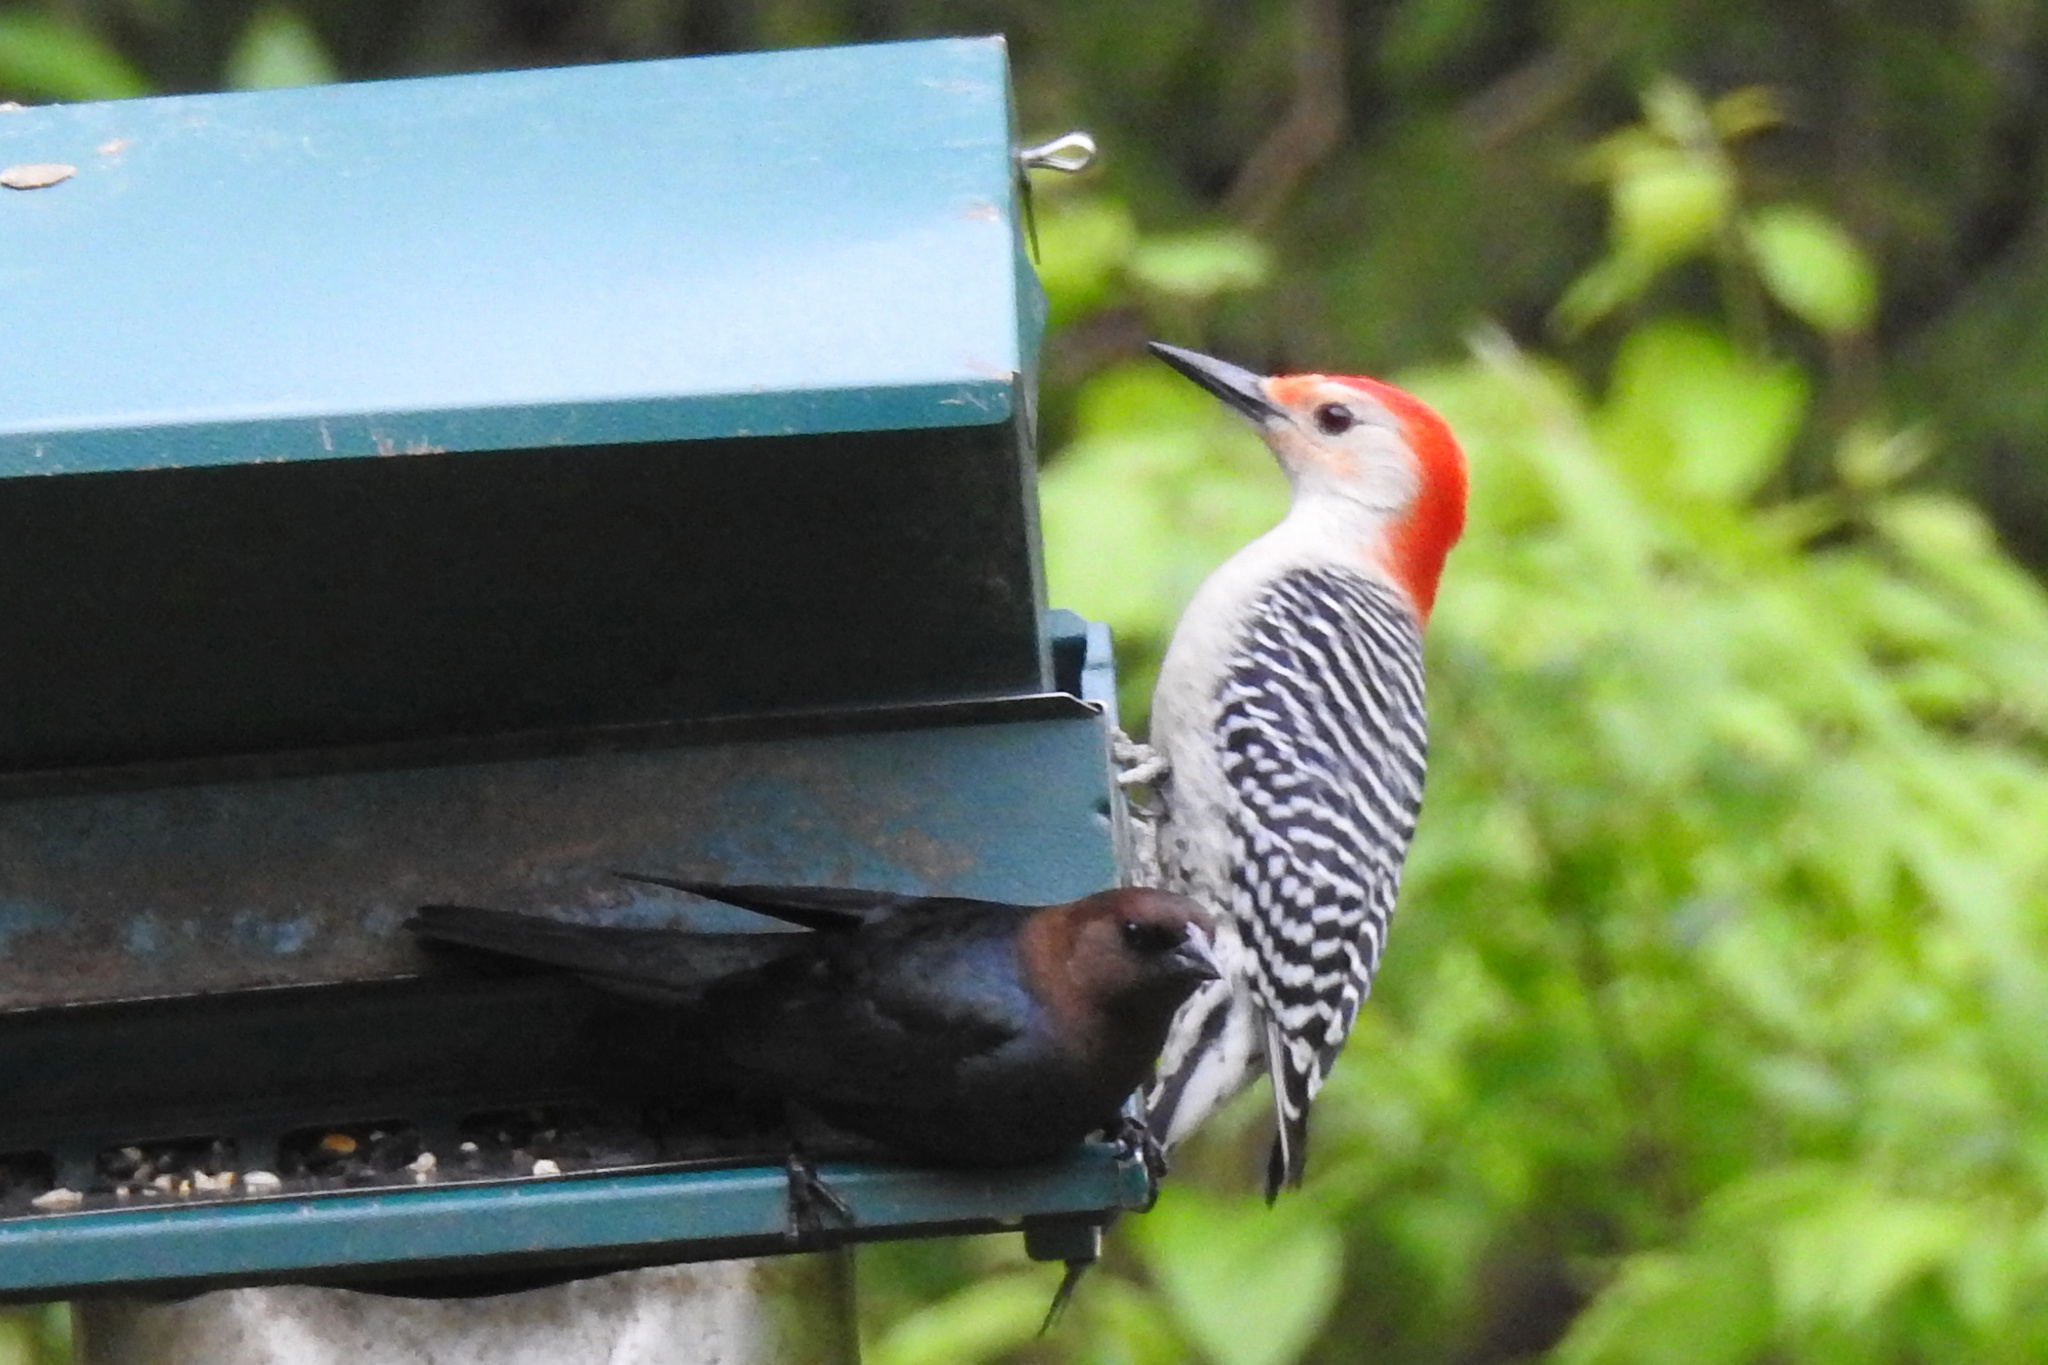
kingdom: Animalia
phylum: Chordata
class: Aves
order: Piciformes
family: Picidae
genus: Melanerpes
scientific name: Melanerpes carolinus
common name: Red-bellied woodpecker
